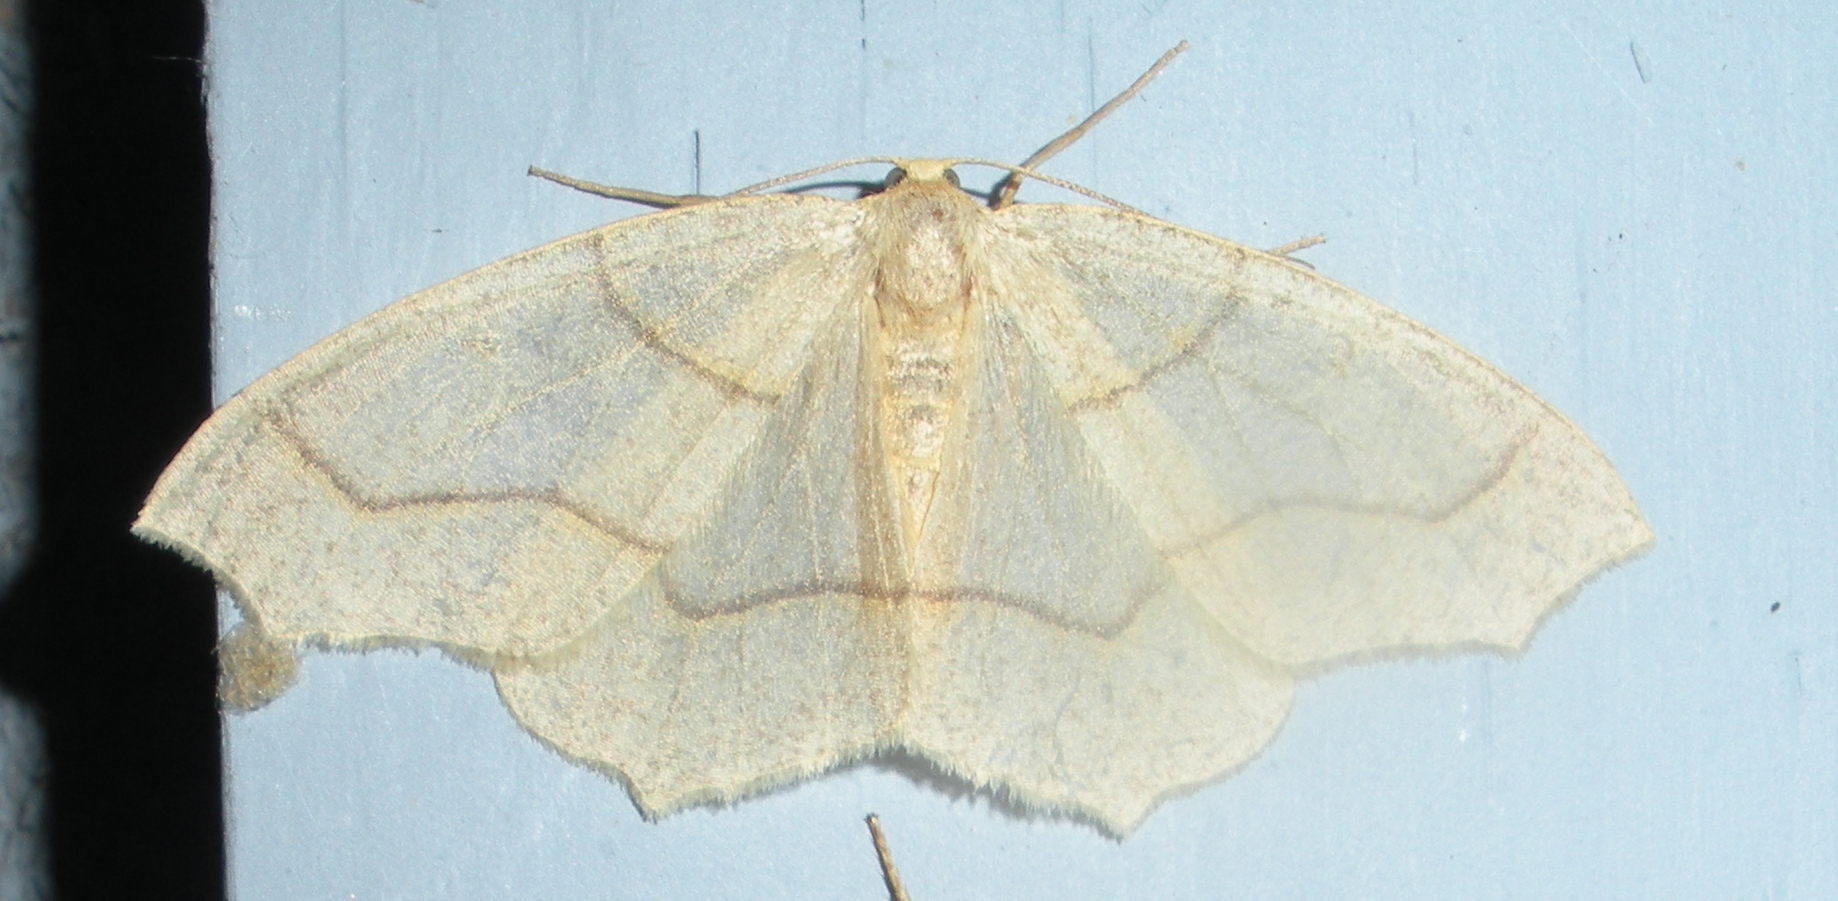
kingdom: Animalia
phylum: Arthropoda
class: Insecta
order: Lepidoptera
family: Geometridae
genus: Lambdina
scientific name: Lambdina fiscellaria
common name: Hemlock looper
